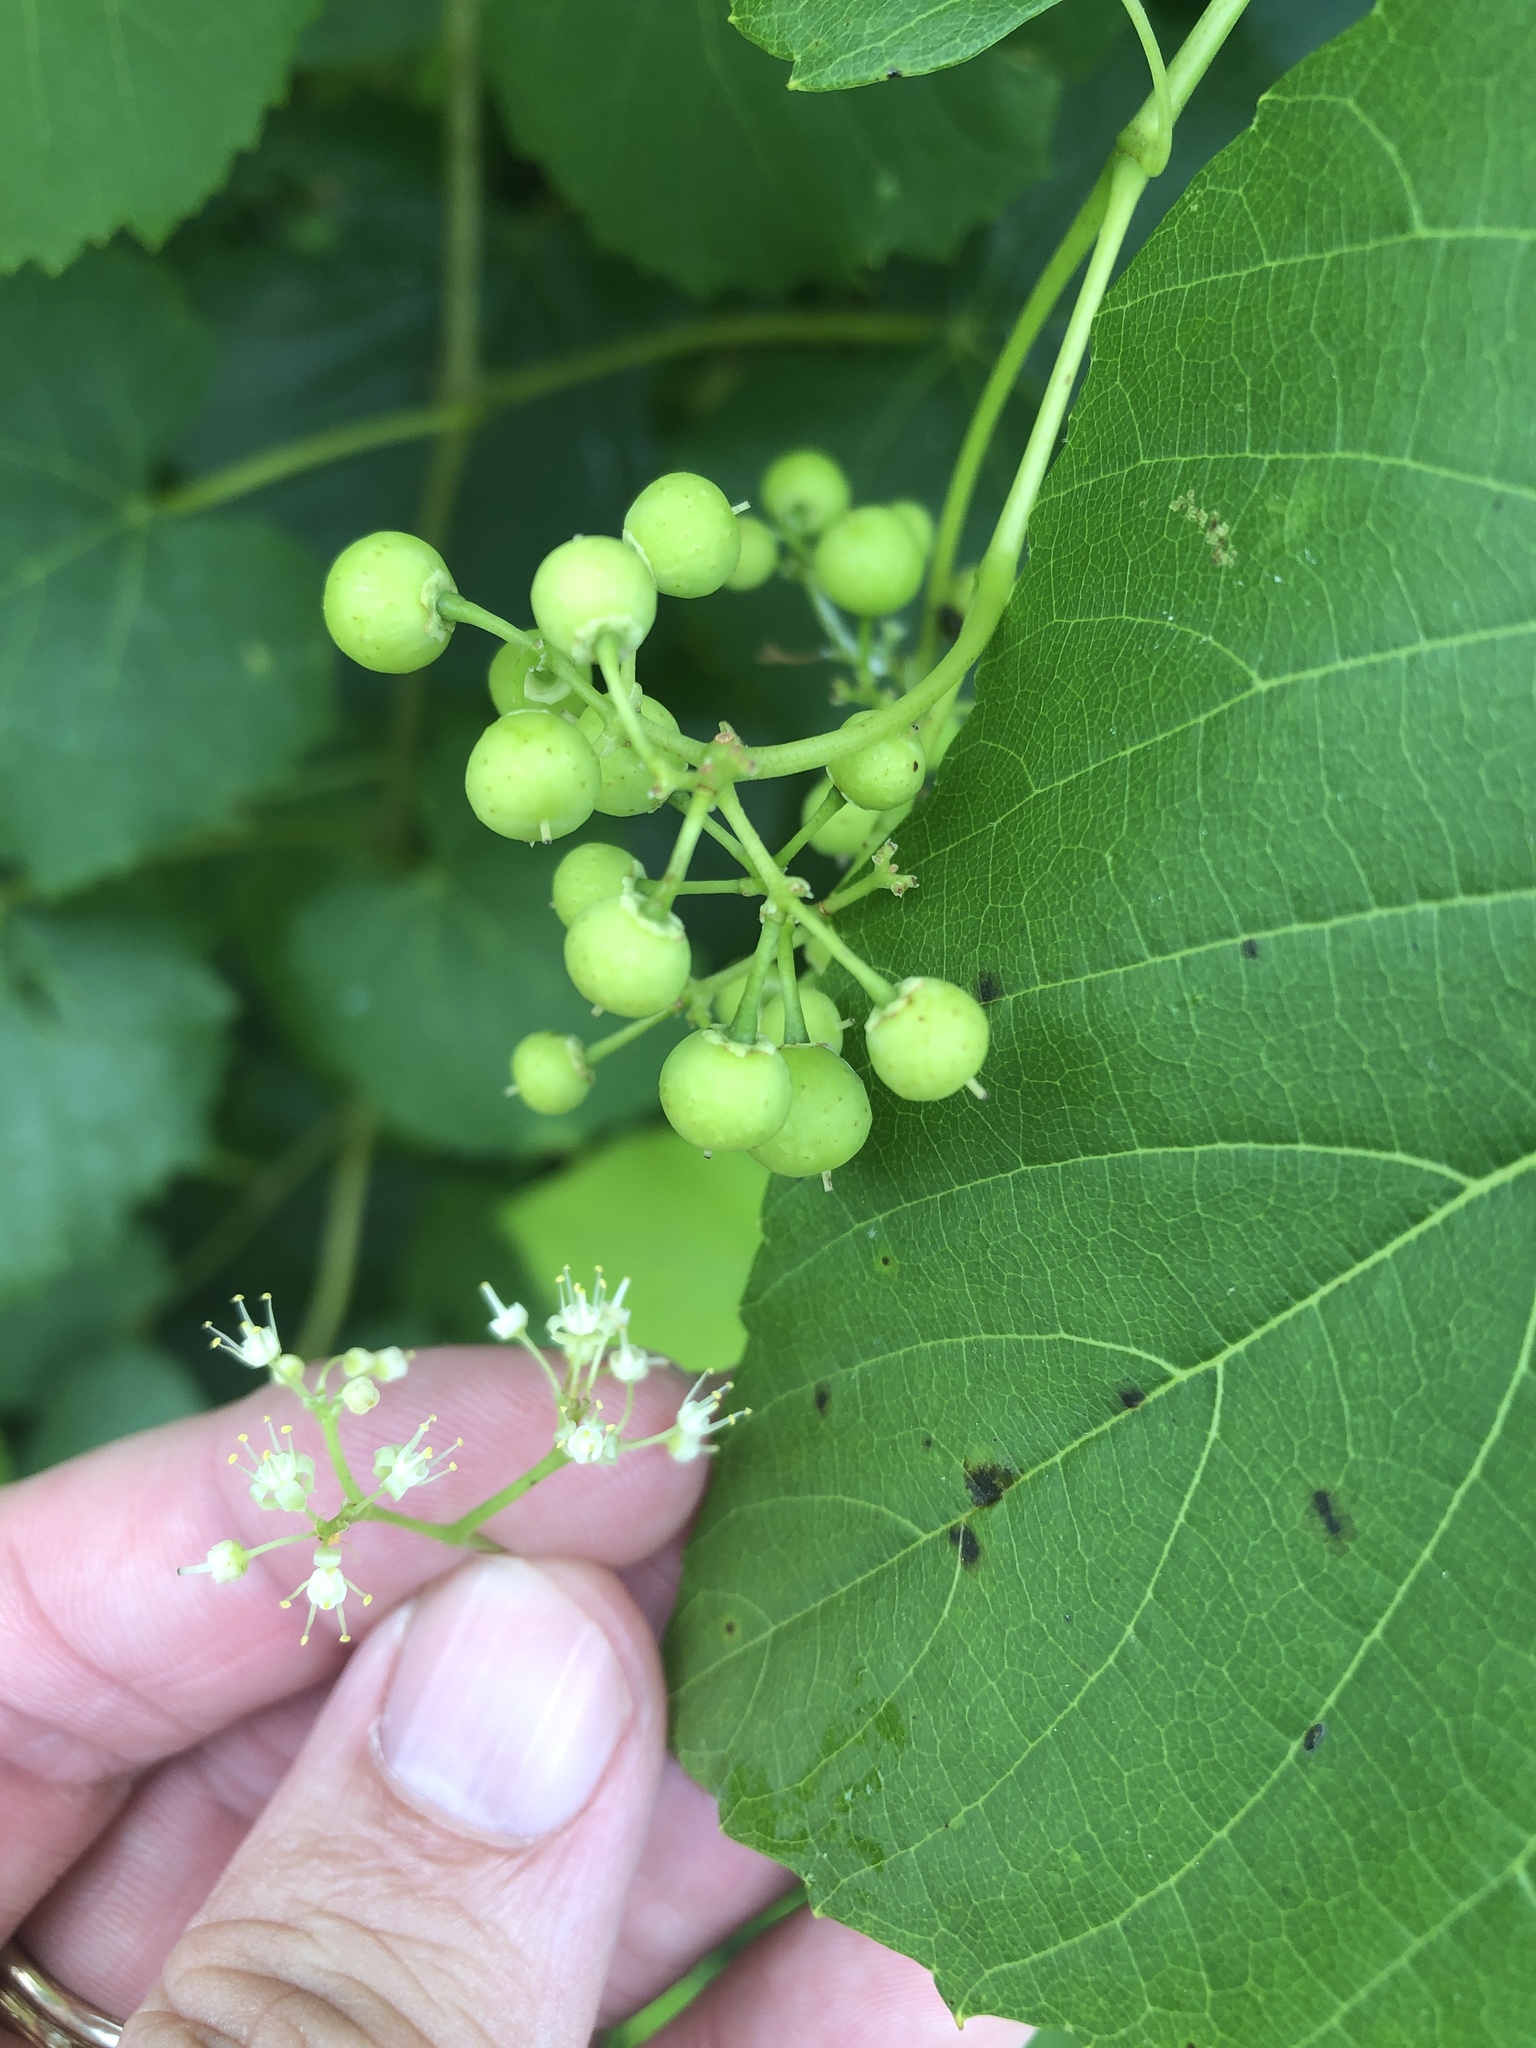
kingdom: Plantae
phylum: Tracheophyta
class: Magnoliopsida
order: Vitales
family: Vitaceae
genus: Ampelopsis
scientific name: Ampelopsis cordata
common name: Heart-leaf ampelopsis
